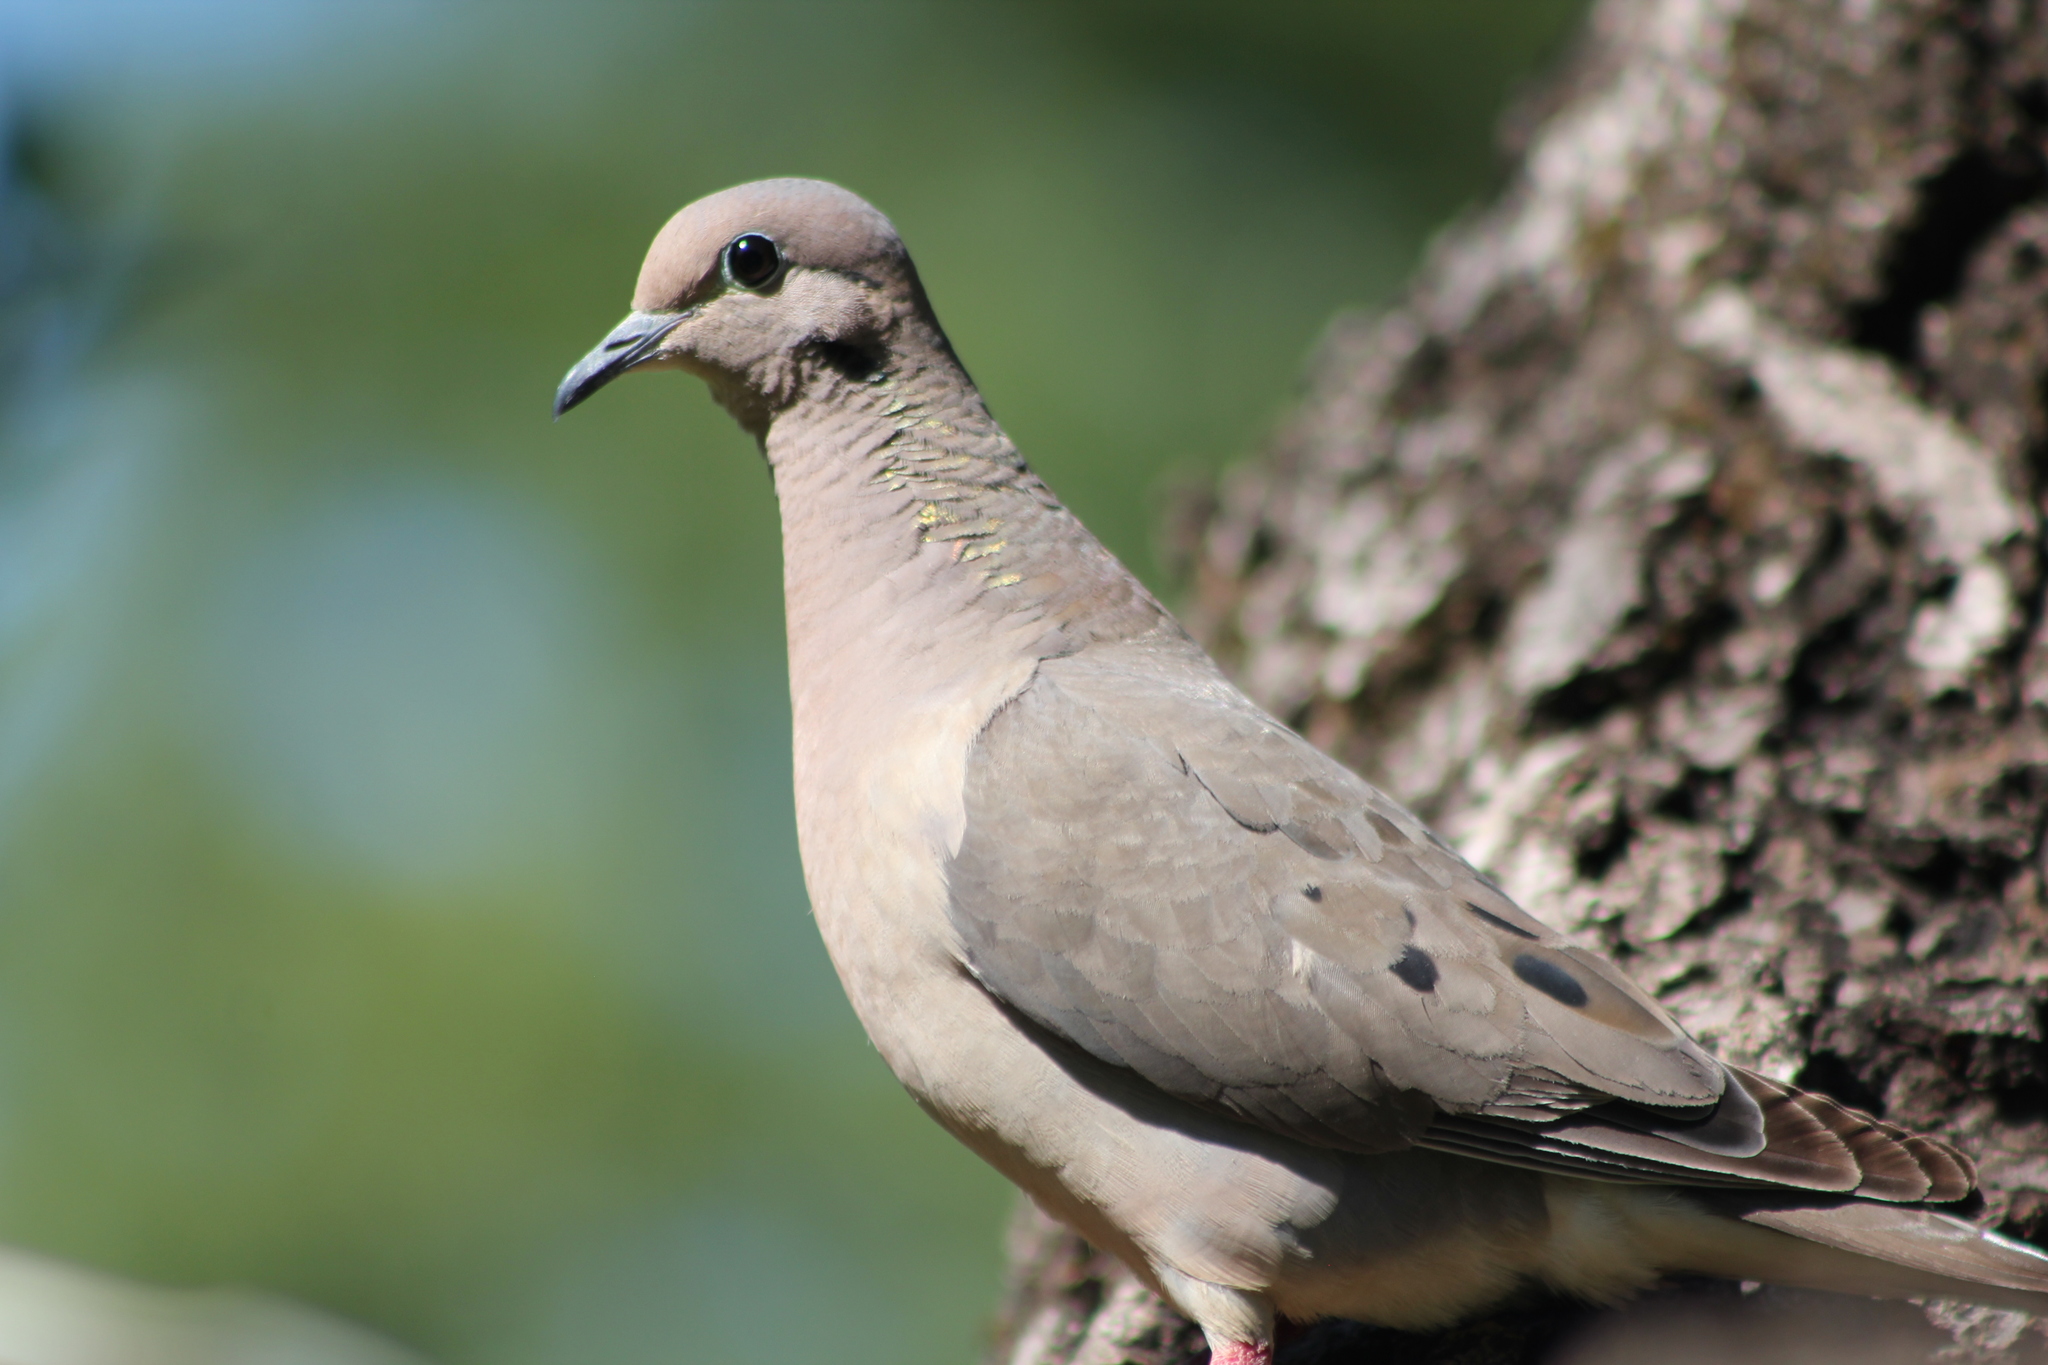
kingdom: Animalia
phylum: Chordata
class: Aves
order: Columbiformes
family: Columbidae
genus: Zenaida
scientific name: Zenaida auriculata
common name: Eared dove
